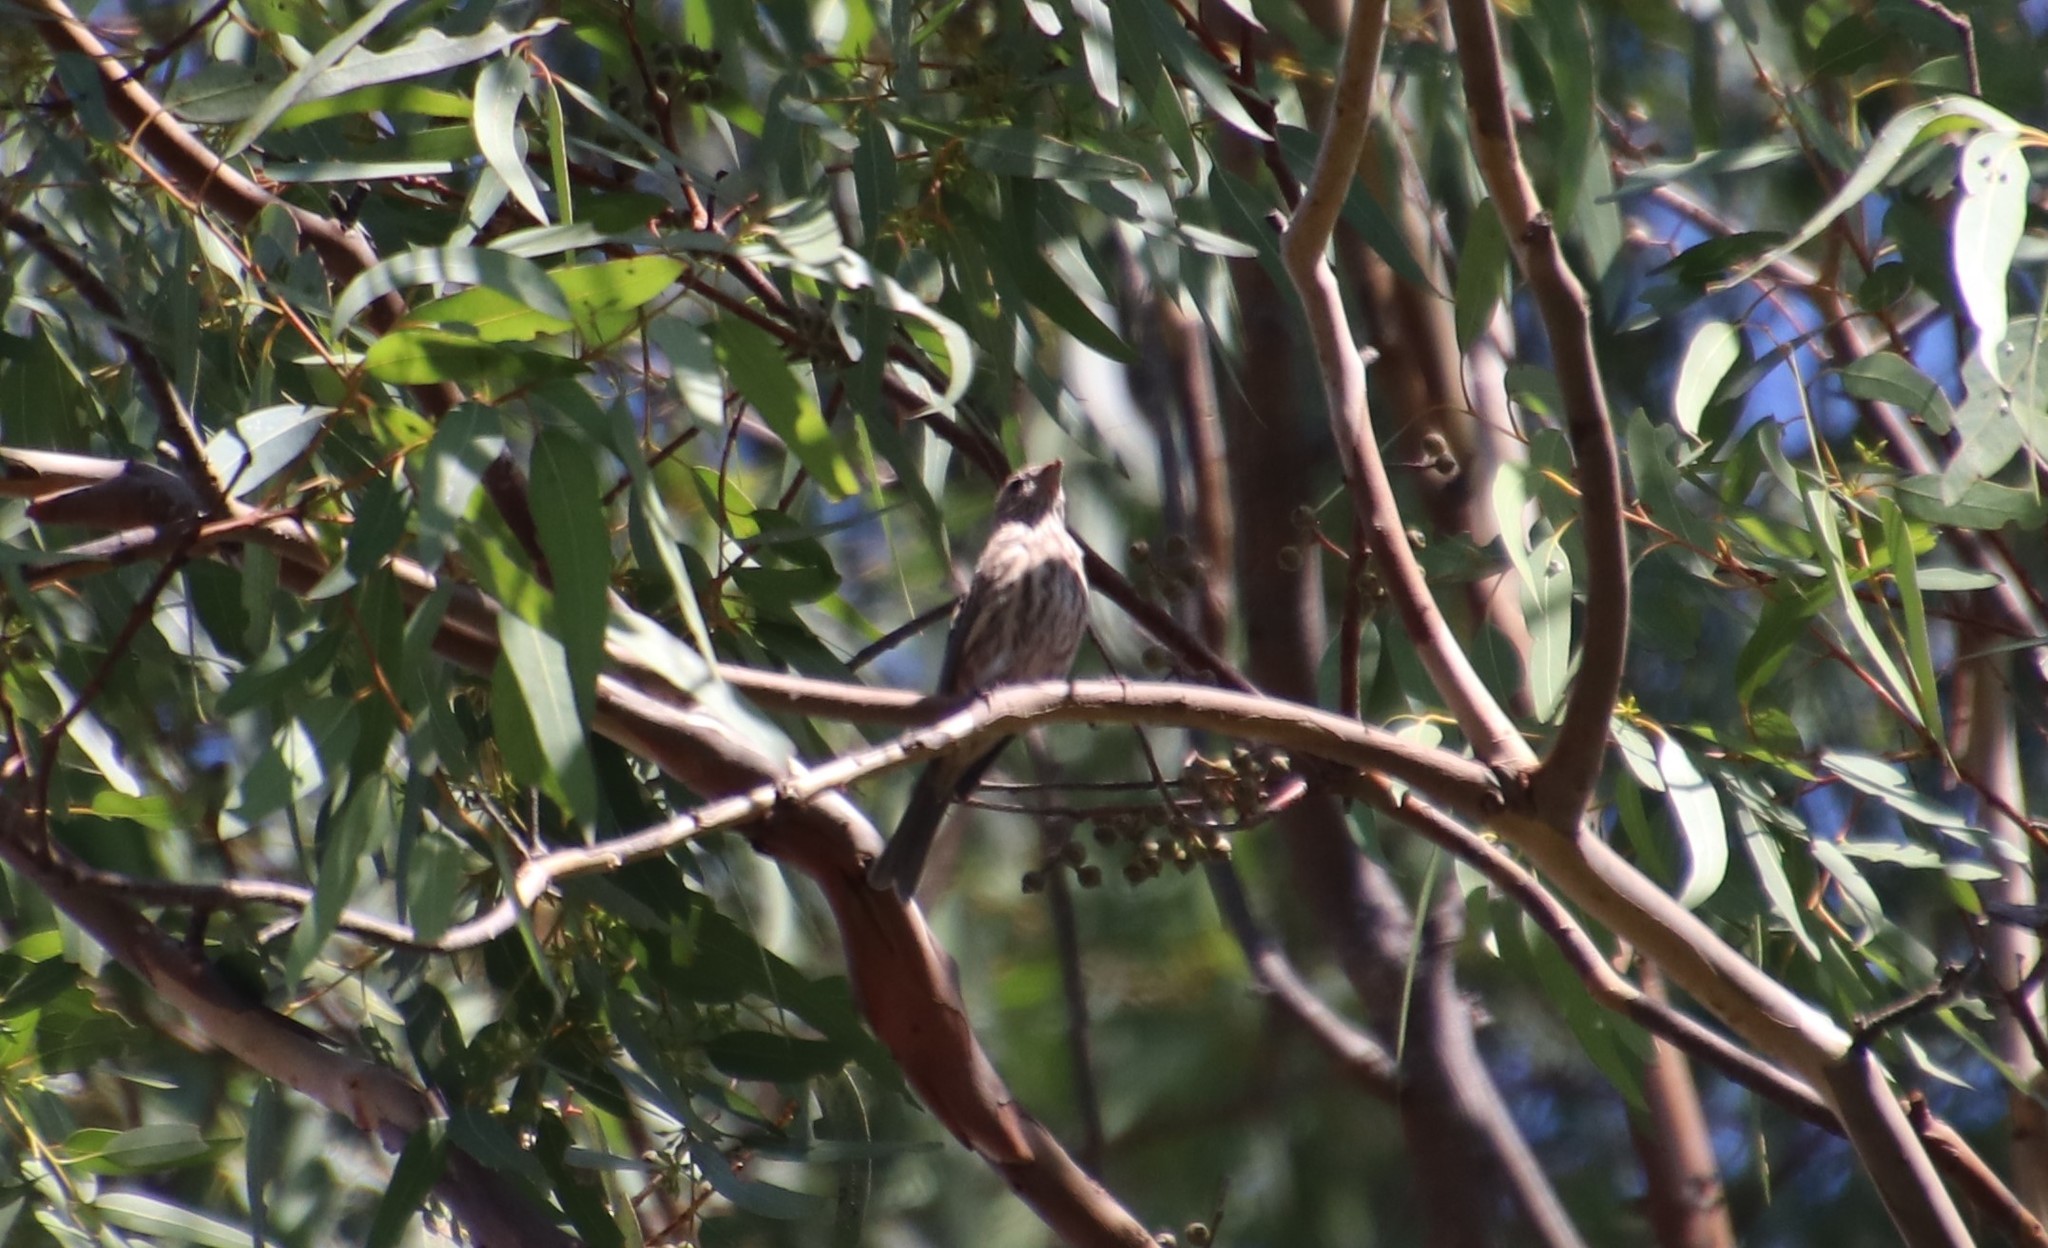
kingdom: Animalia
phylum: Chordata
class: Aves
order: Passeriformes
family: Fringillidae
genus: Haemorhous
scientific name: Haemorhous mexicanus
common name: House finch
